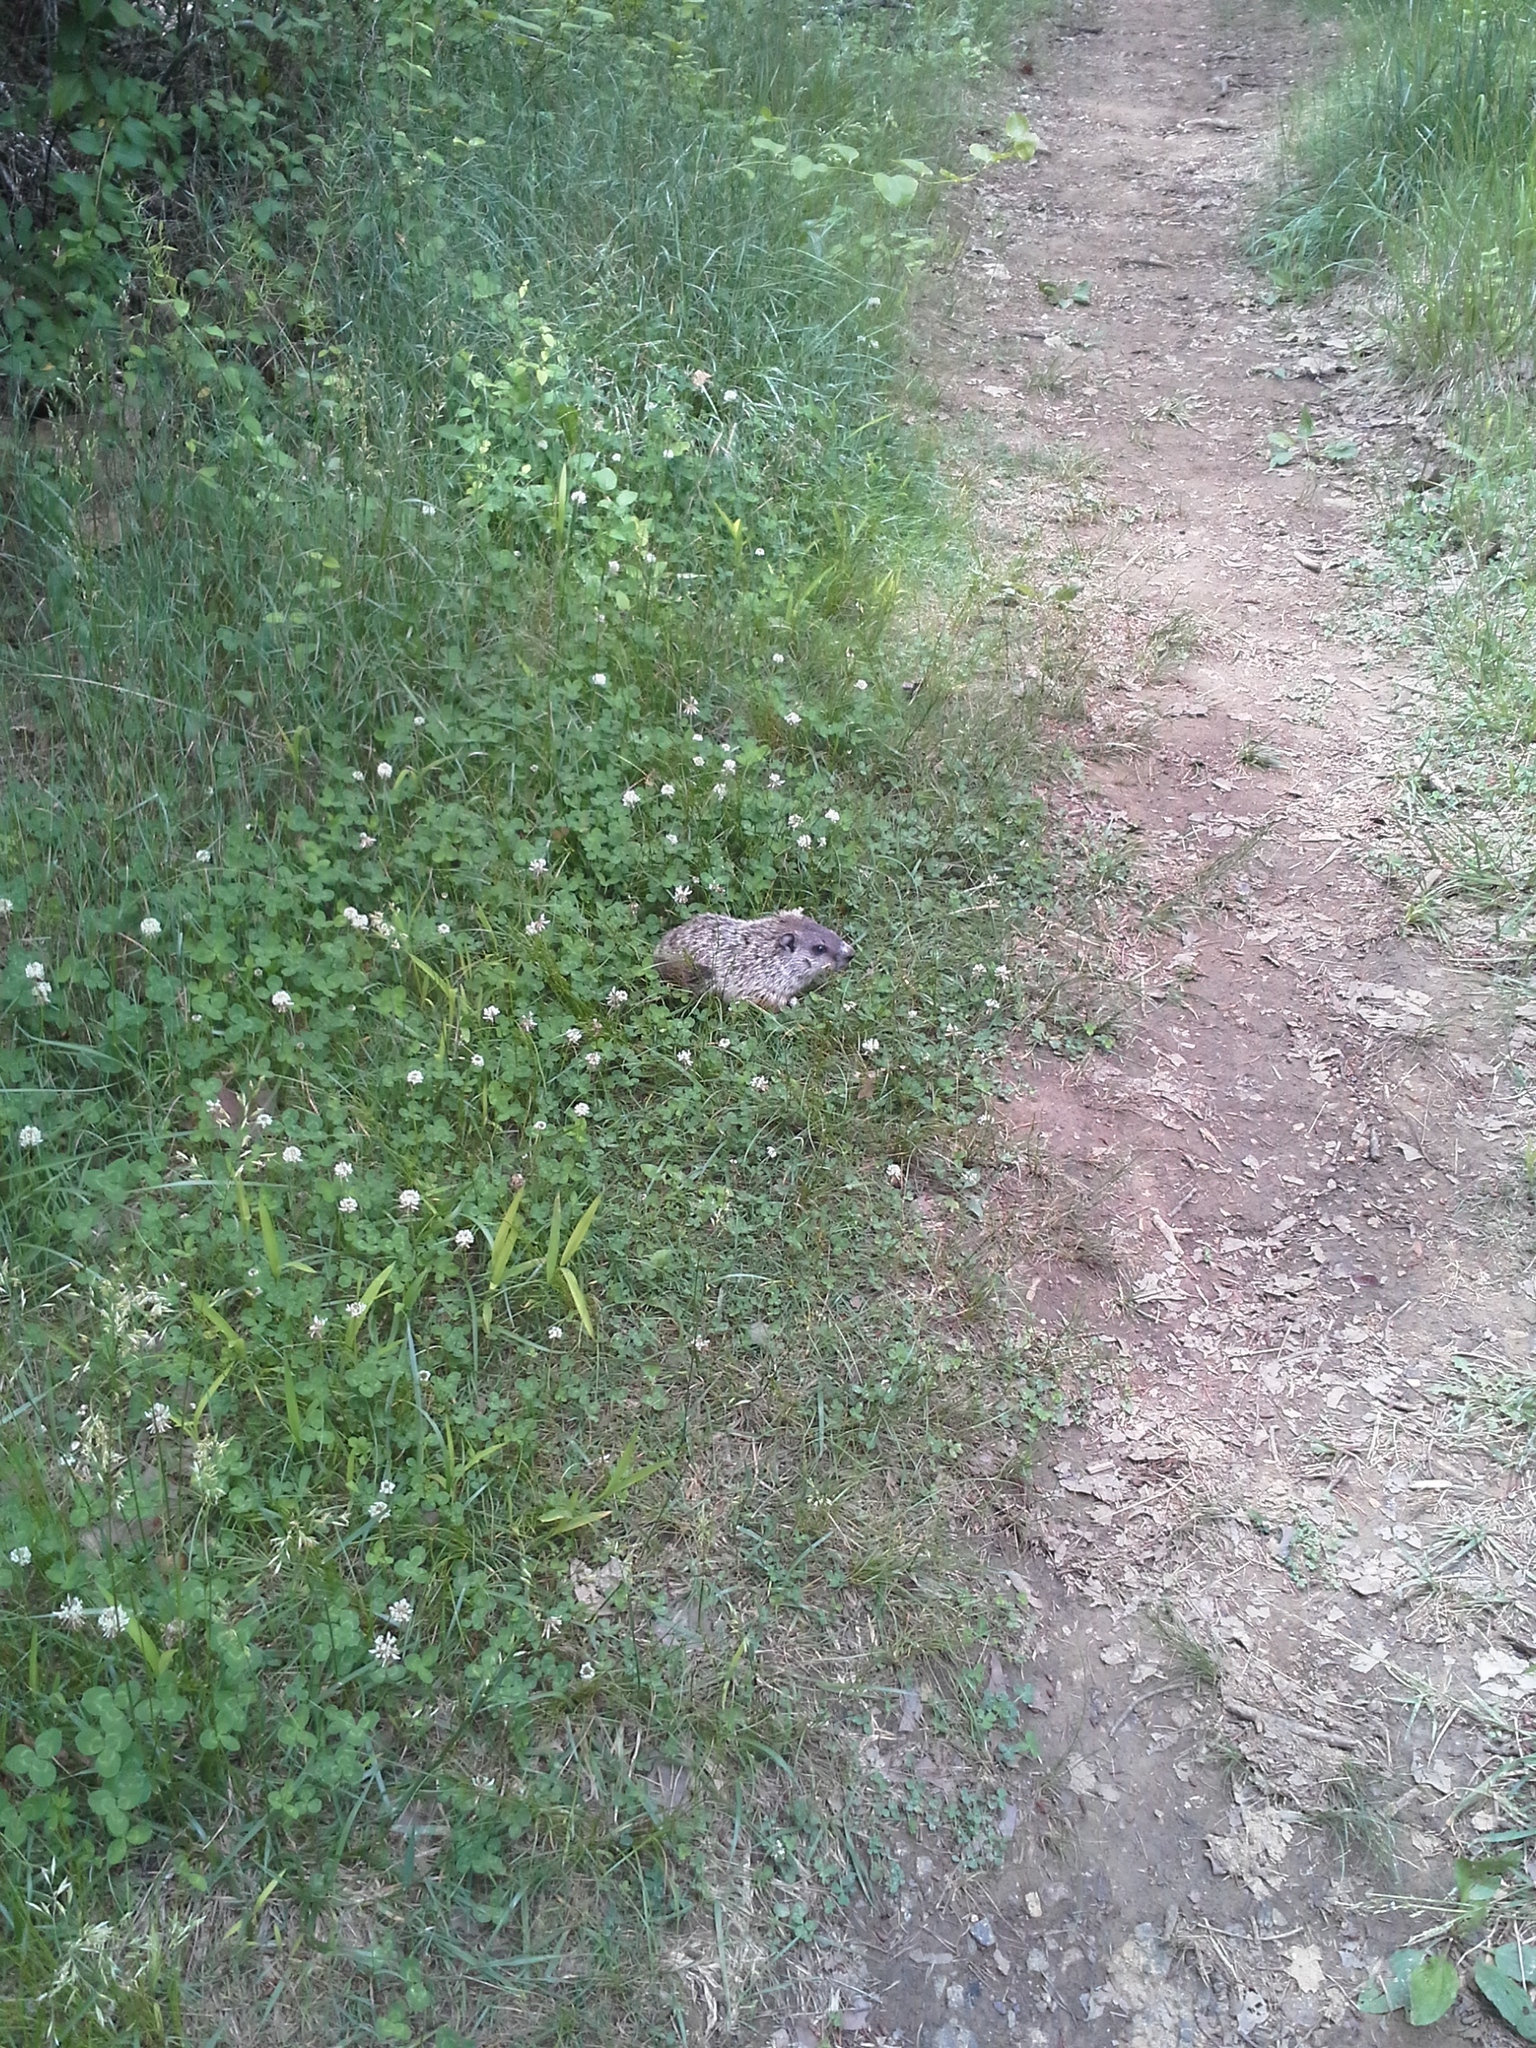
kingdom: Animalia
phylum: Chordata
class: Mammalia
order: Rodentia
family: Sciuridae
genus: Marmota
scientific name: Marmota monax
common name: Groundhog
